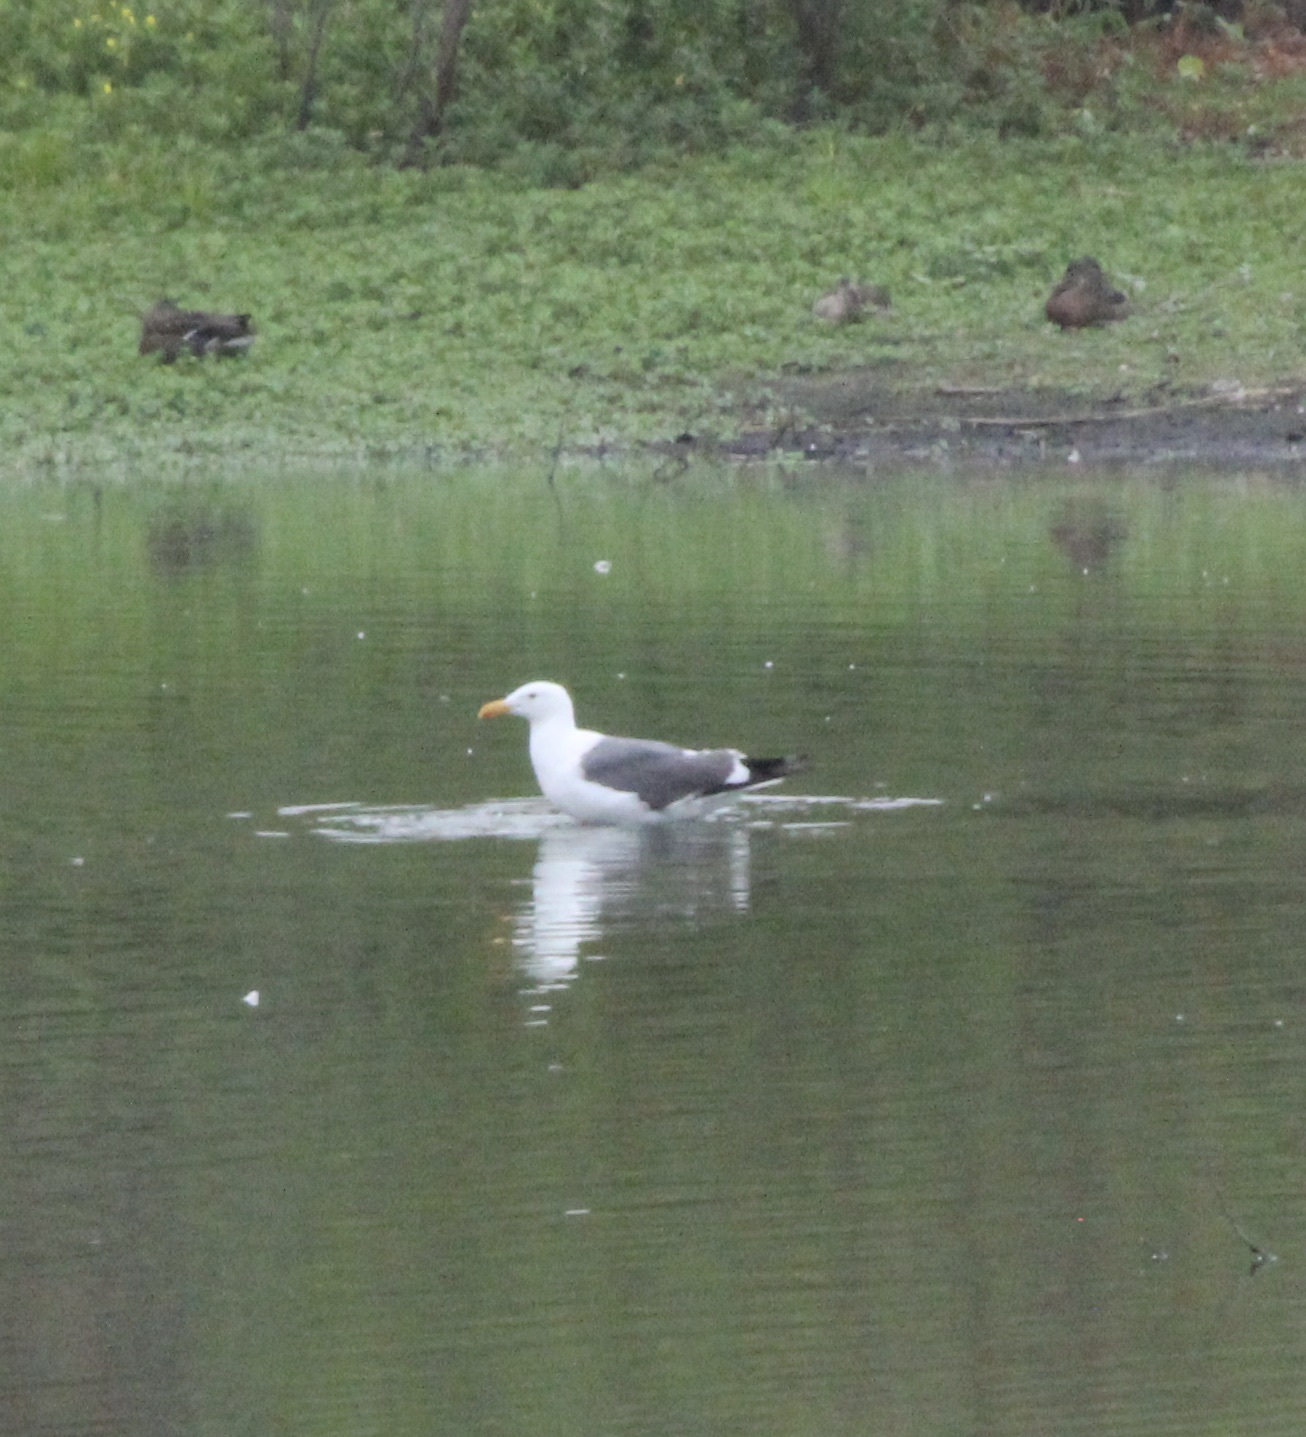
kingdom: Animalia
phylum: Chordata
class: Aves
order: Charadriiformes
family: Laridae
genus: Larus
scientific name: Larus occidentalis
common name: Western gull
